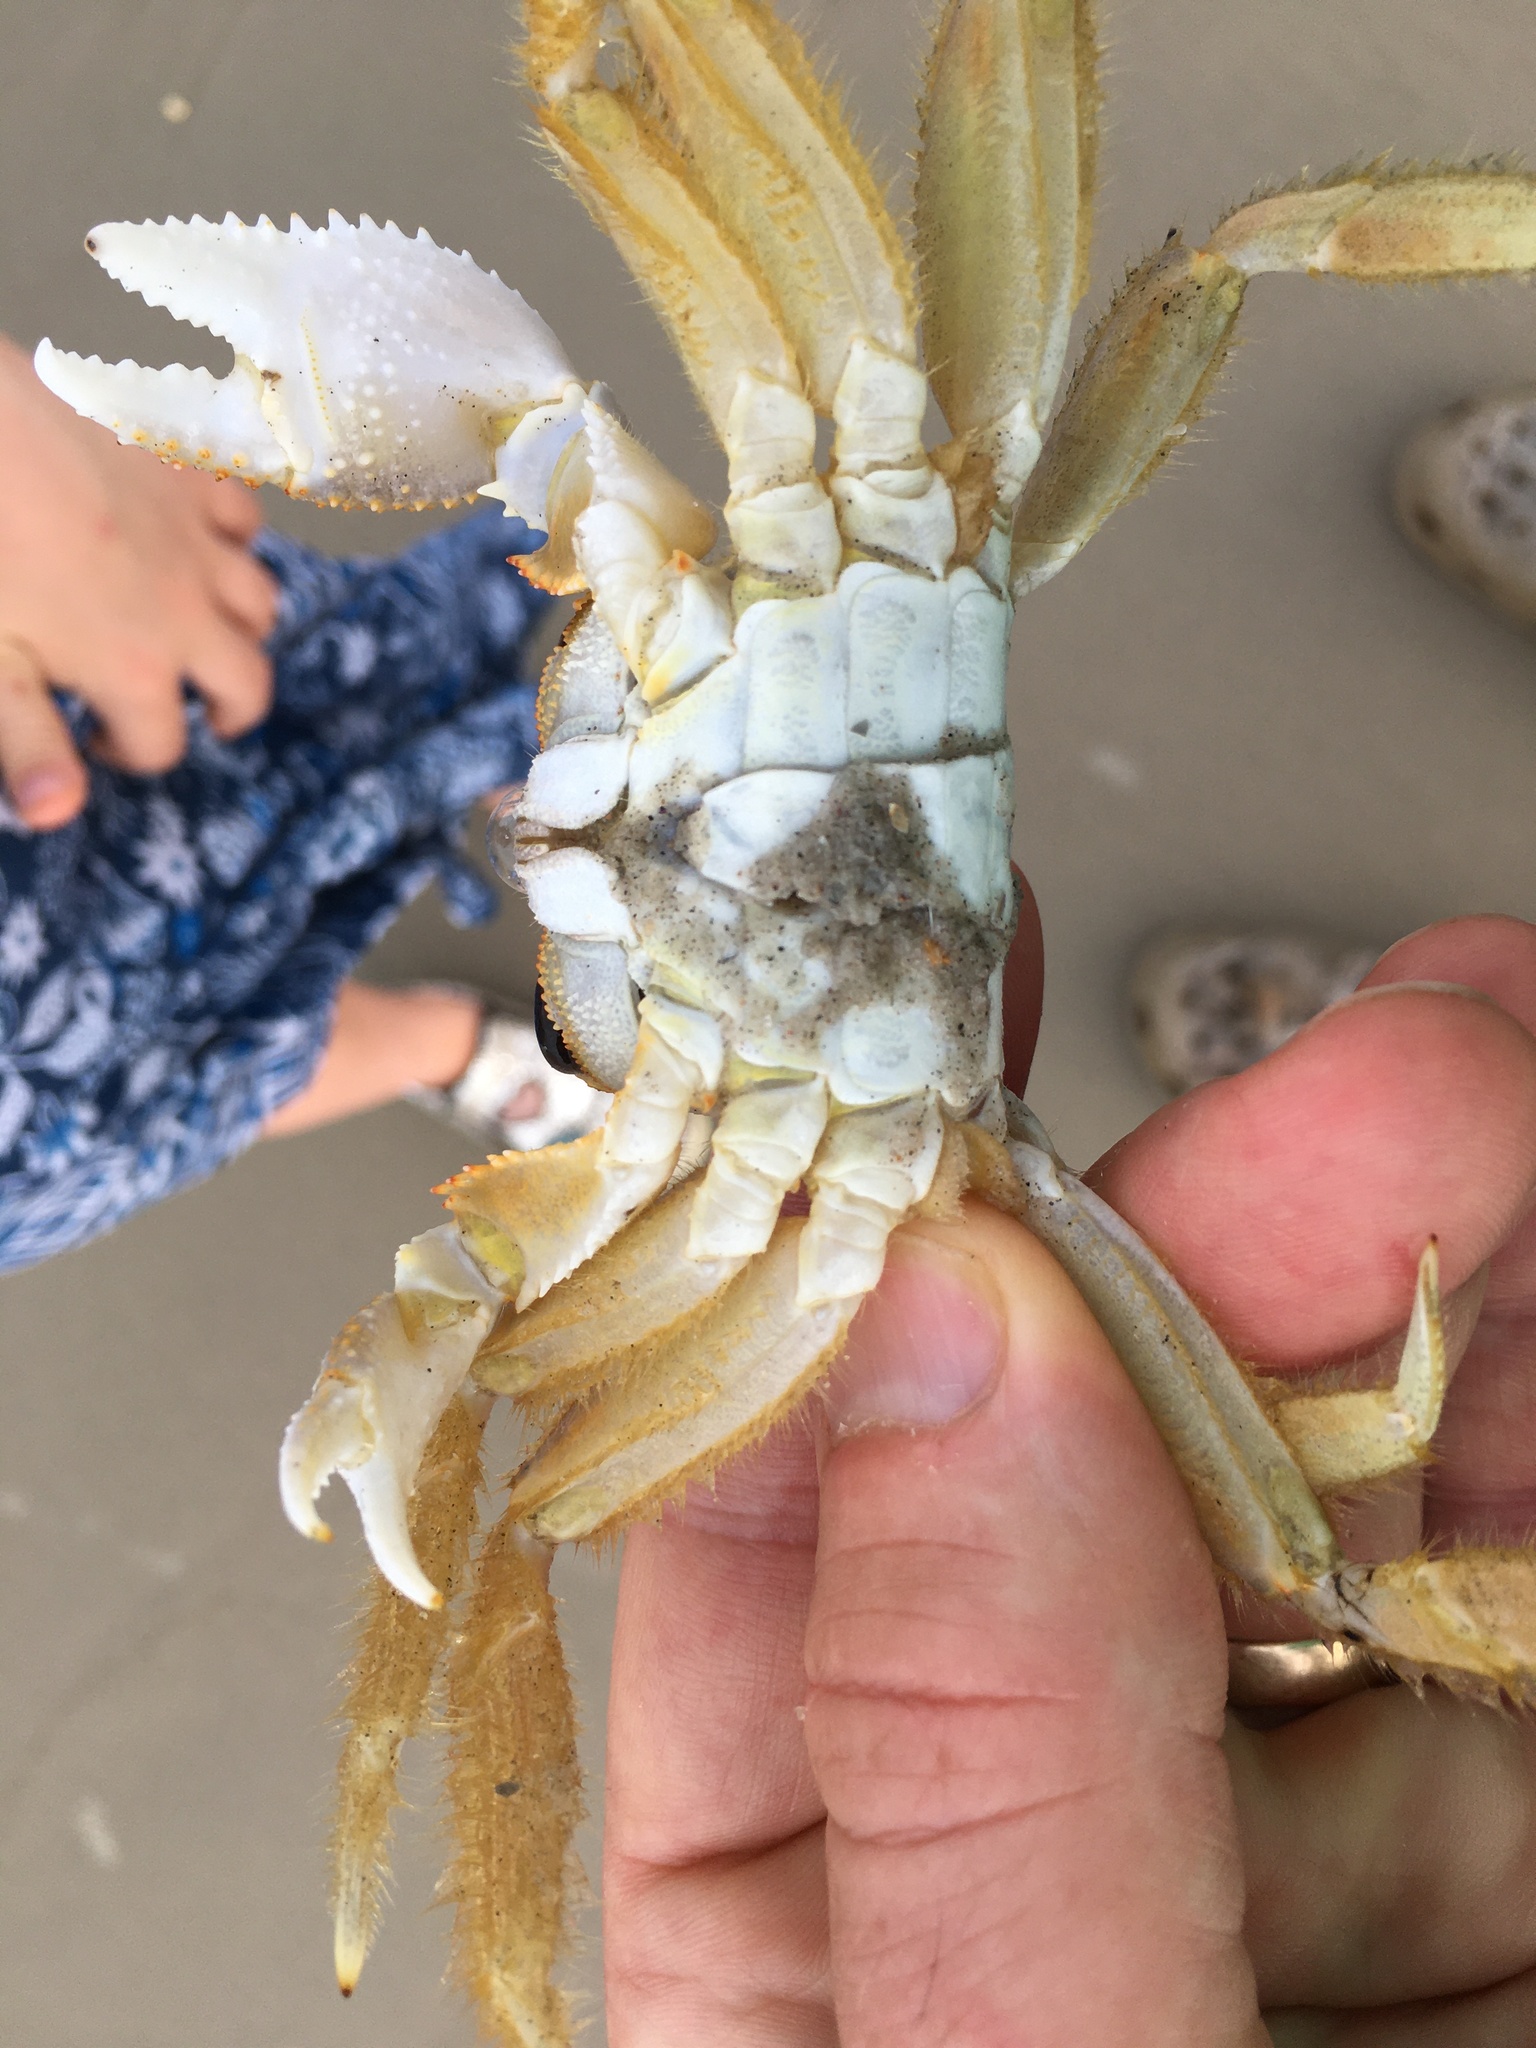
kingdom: Animalia
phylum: Arthropoda
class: Malacostraca
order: Decapoda
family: Ocypodidae
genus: Ocypode
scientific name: Ocypode quadrata
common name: Ghost crab
